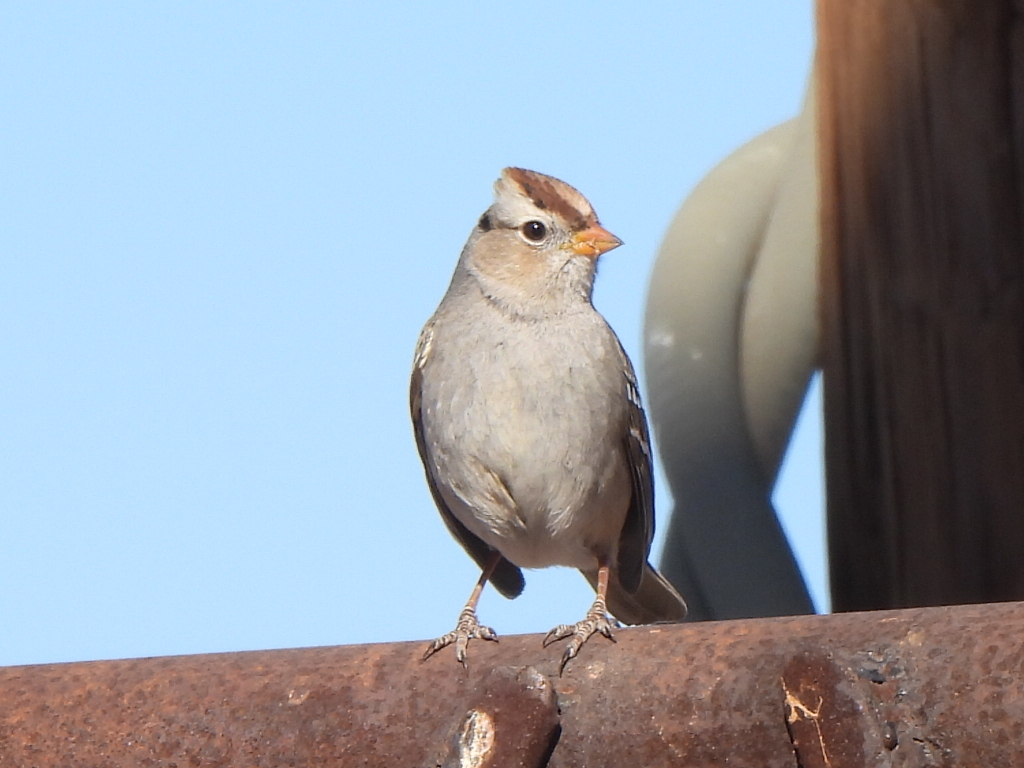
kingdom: Animalia
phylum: Chordata
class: Aves
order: Passeriformes
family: Passerellidae
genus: Zonotrichia
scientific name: Zonotrichia leucophrys
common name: White-crowned sparrow
